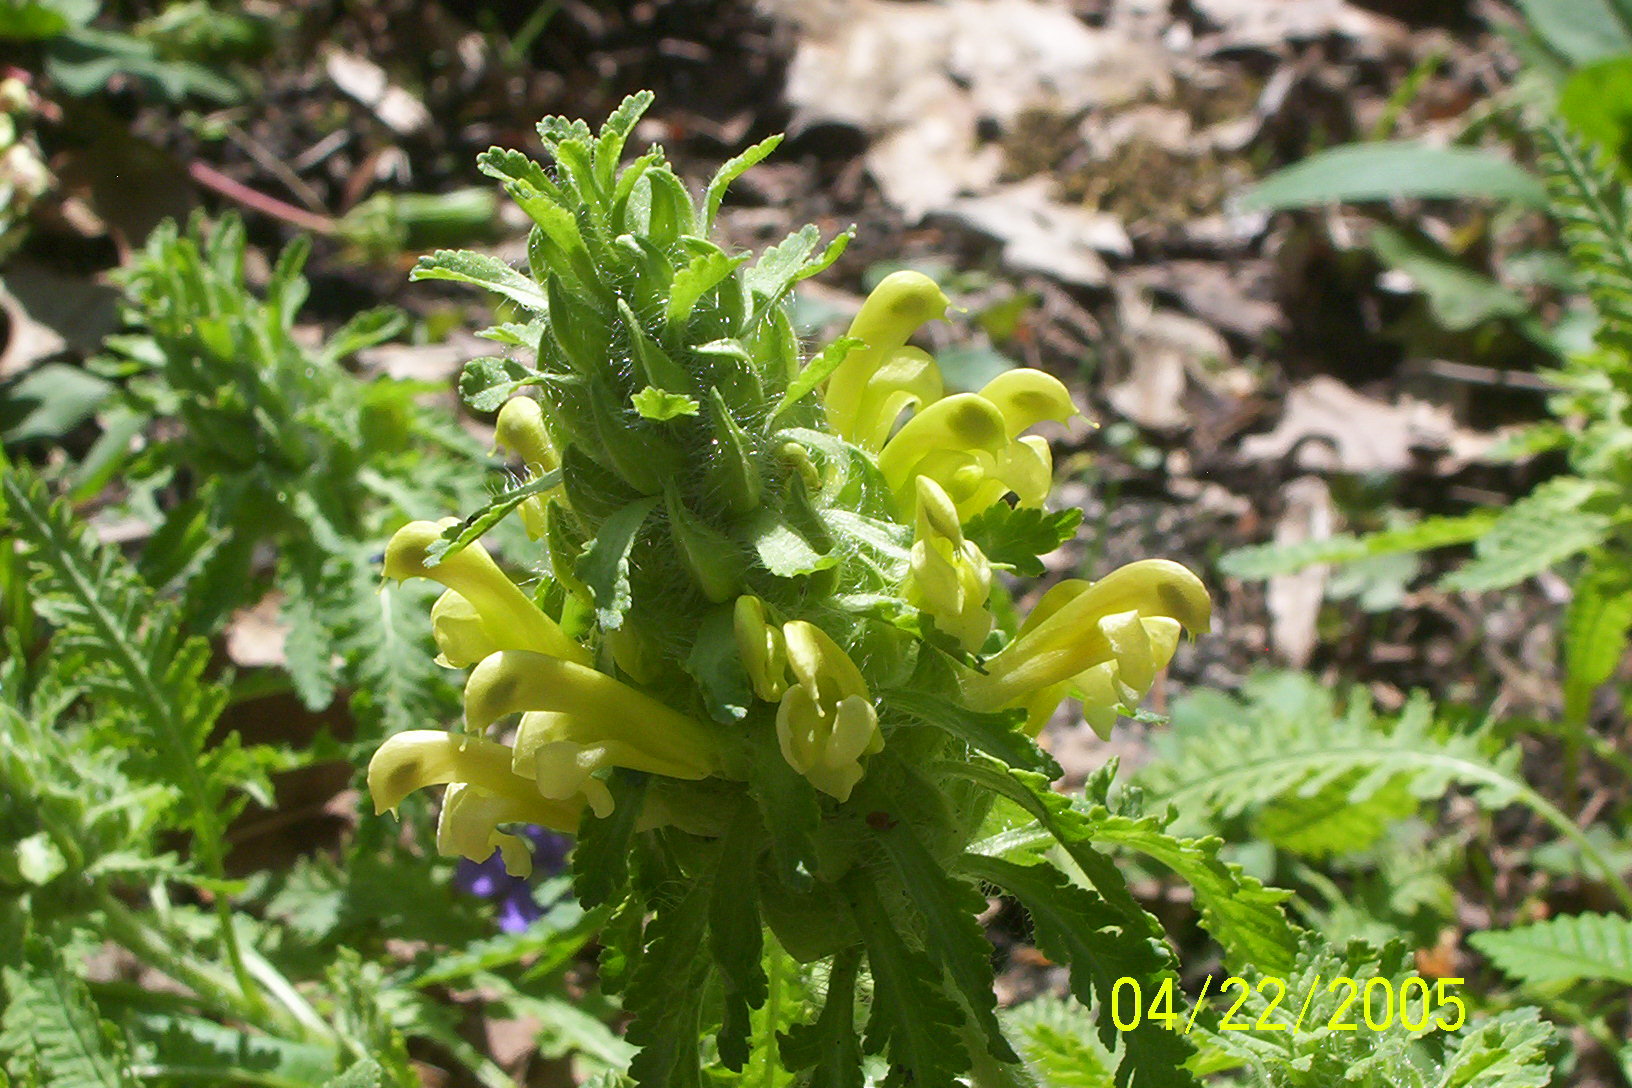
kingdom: Plantae
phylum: Tracheophyta
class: Magnoliopsida
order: Lamiales
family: Orobanchaceae
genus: Pedicularis
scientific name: Pedicularis canadensis
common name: Early lousewort
